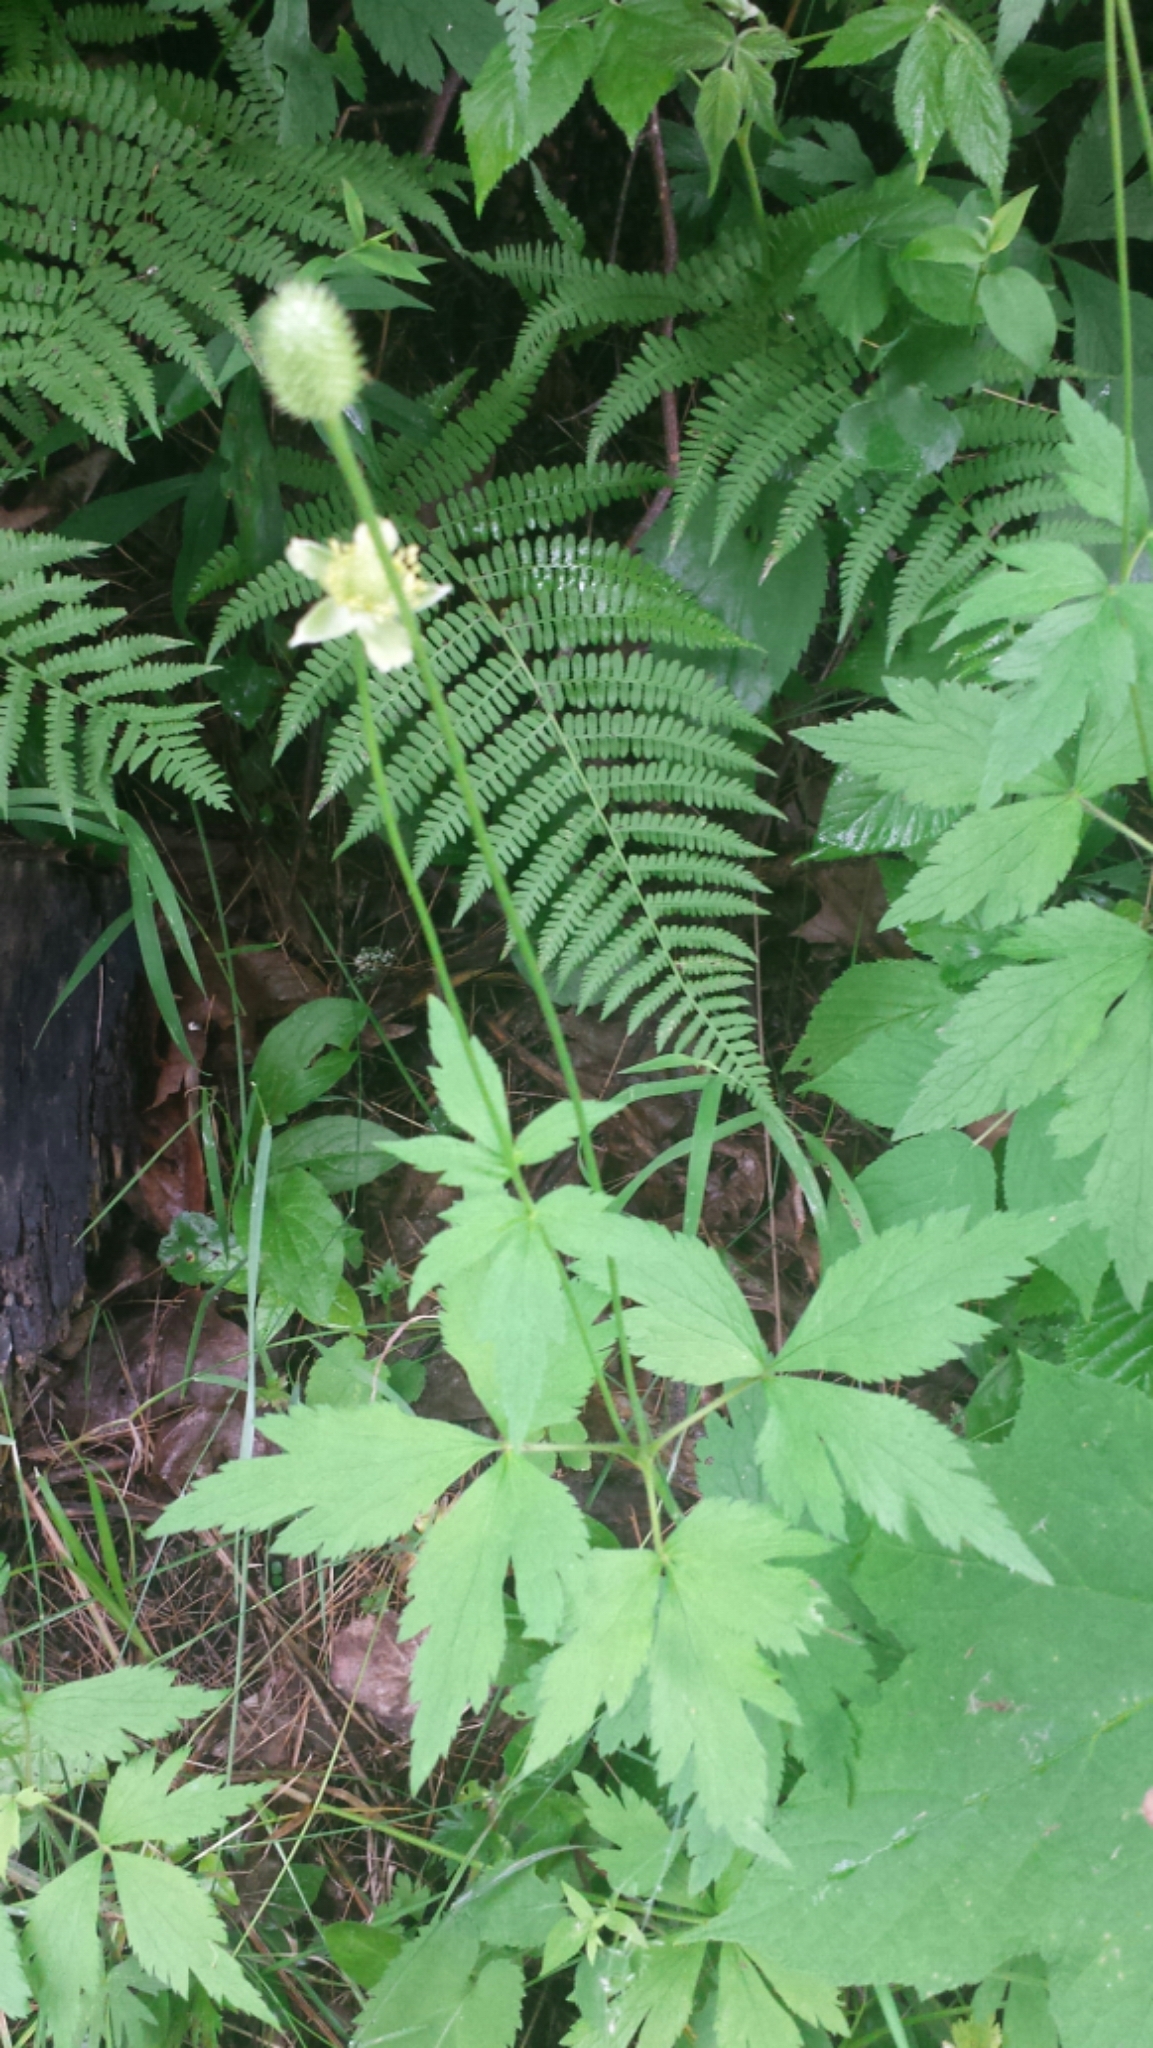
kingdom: Plantae
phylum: Tracheophyta
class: Magnoliopsida
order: Ranunculales
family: Ranunculaceae
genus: Anemone
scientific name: Anemone virginiana
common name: Tall anemone
